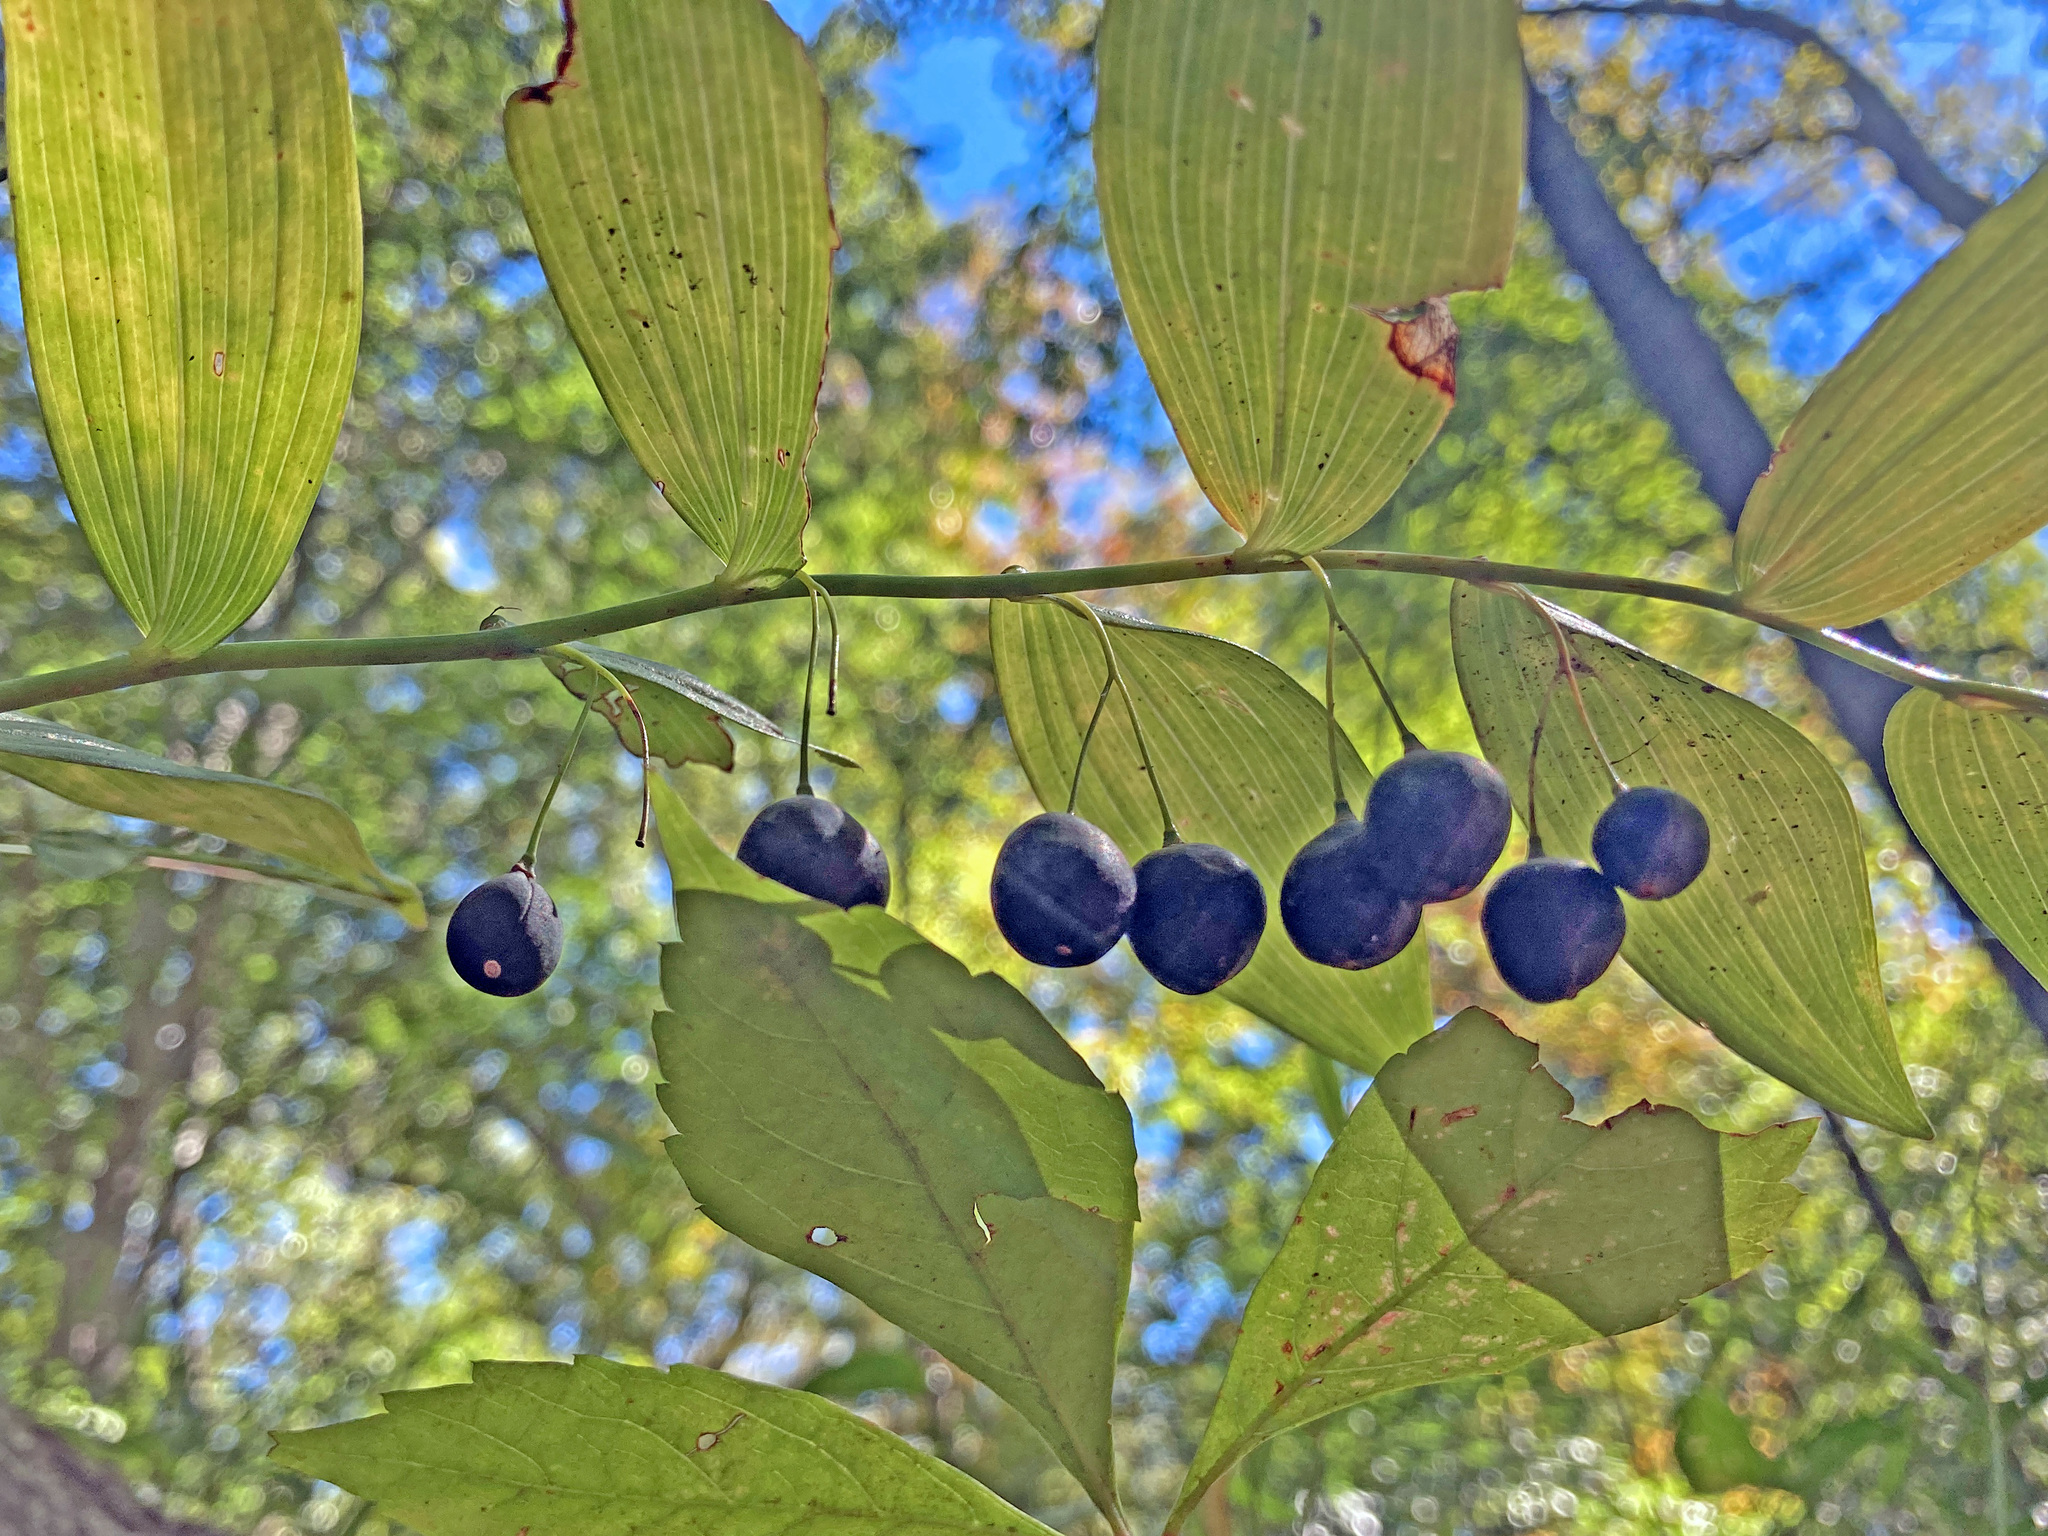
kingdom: Plantae
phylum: Tracheophyta
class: Liliopsida
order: Asparagales
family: Asparagaceae
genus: Polygonatum
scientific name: Polygonatum biflorum
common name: American solomon's-seal
